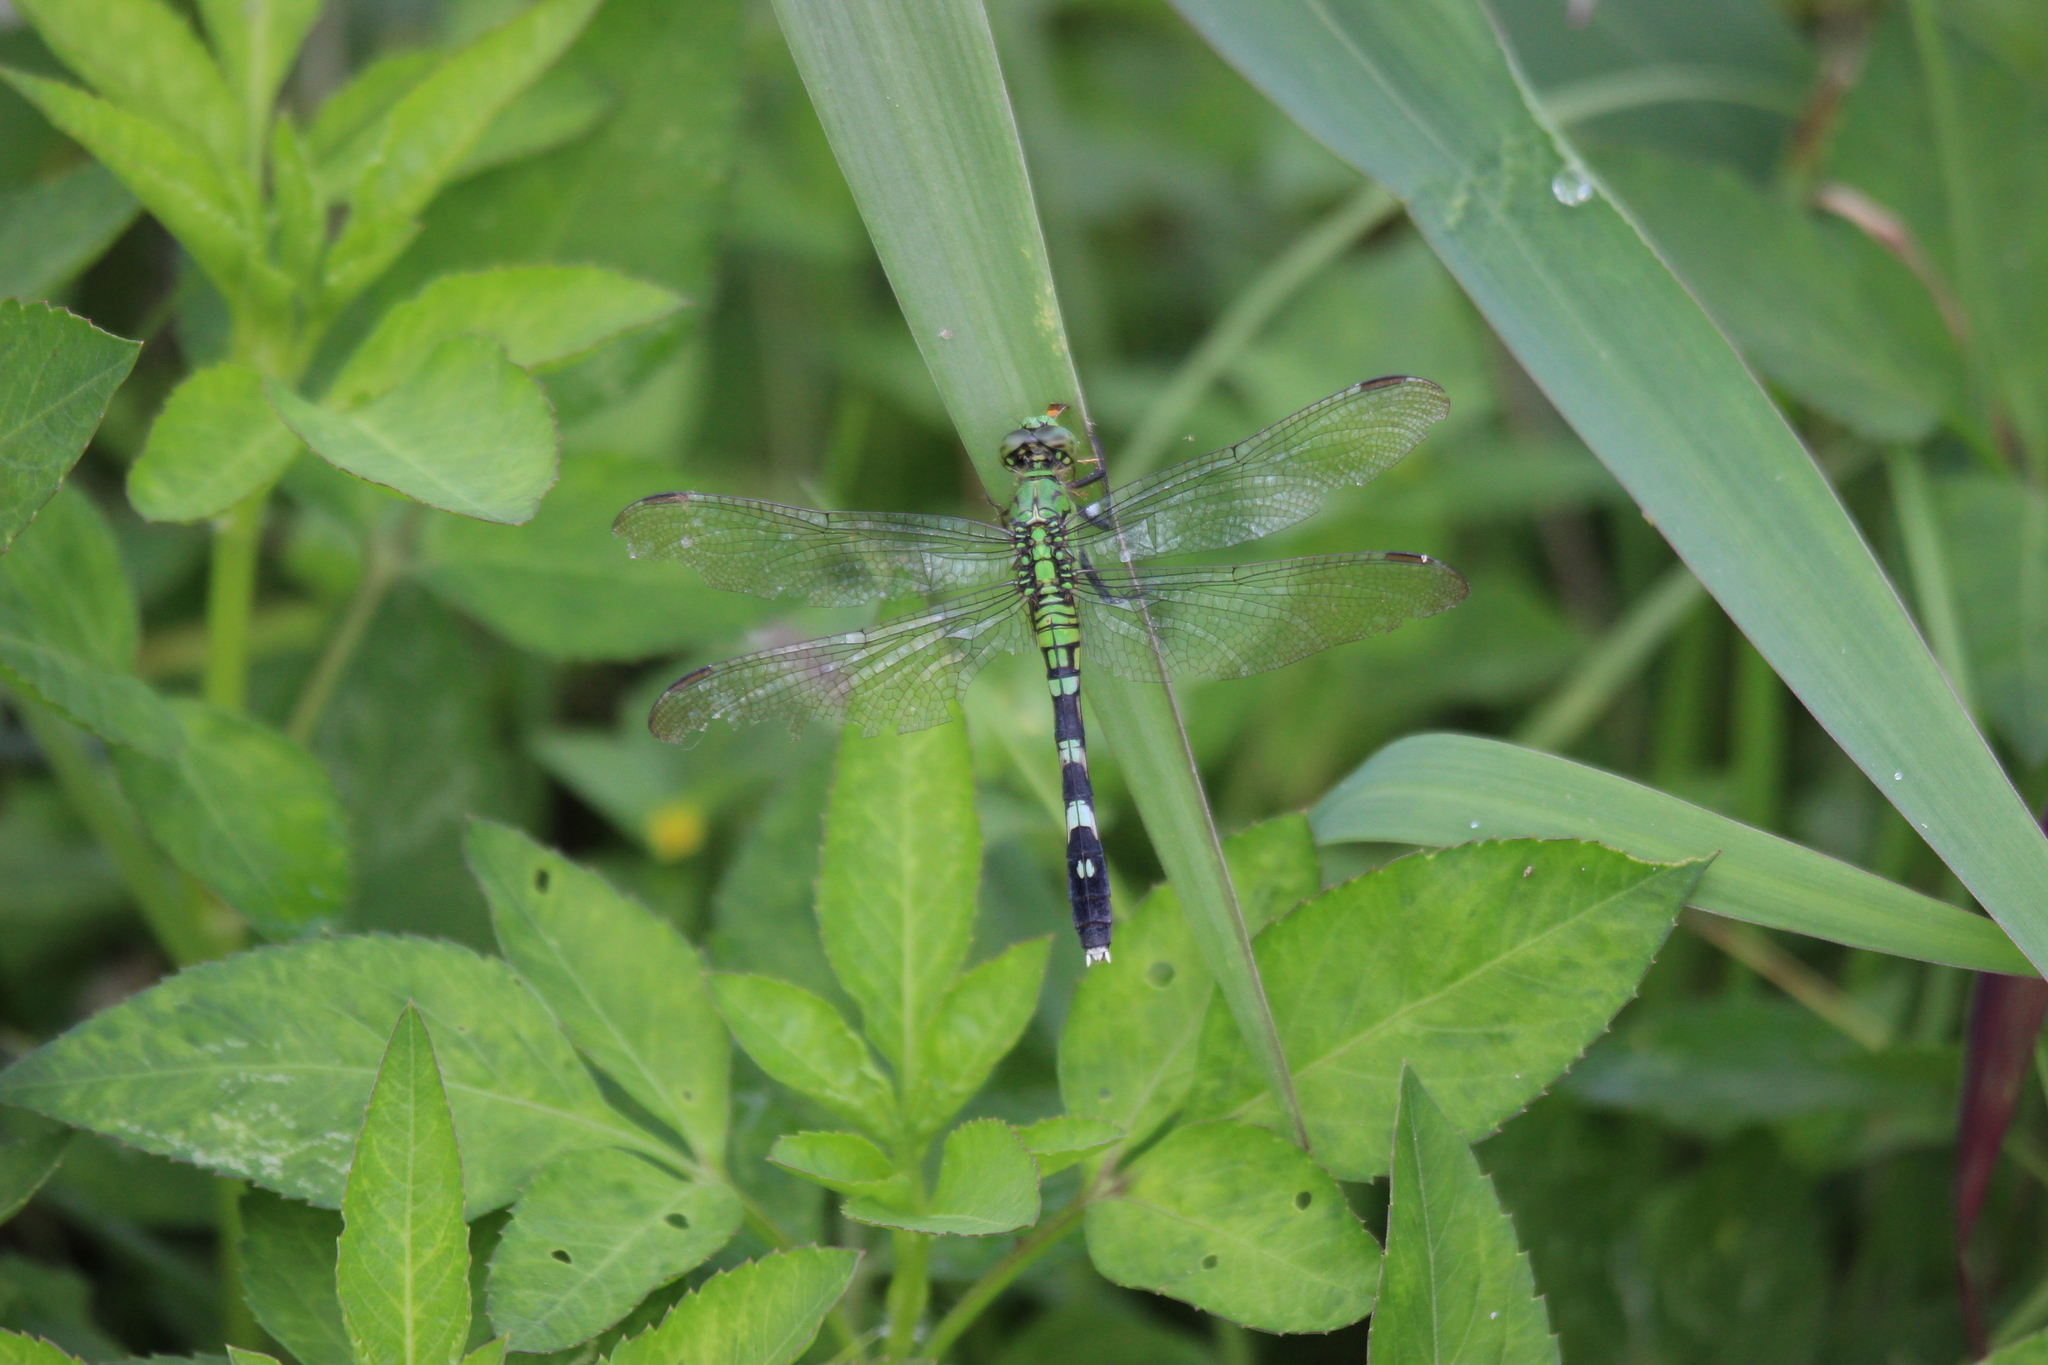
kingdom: Animalia
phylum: Arthropoda
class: Insecta
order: Odonata
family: Libellulidae
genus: Erythemis
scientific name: Erythemis simplicicollis
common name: Eastern pondhawk
